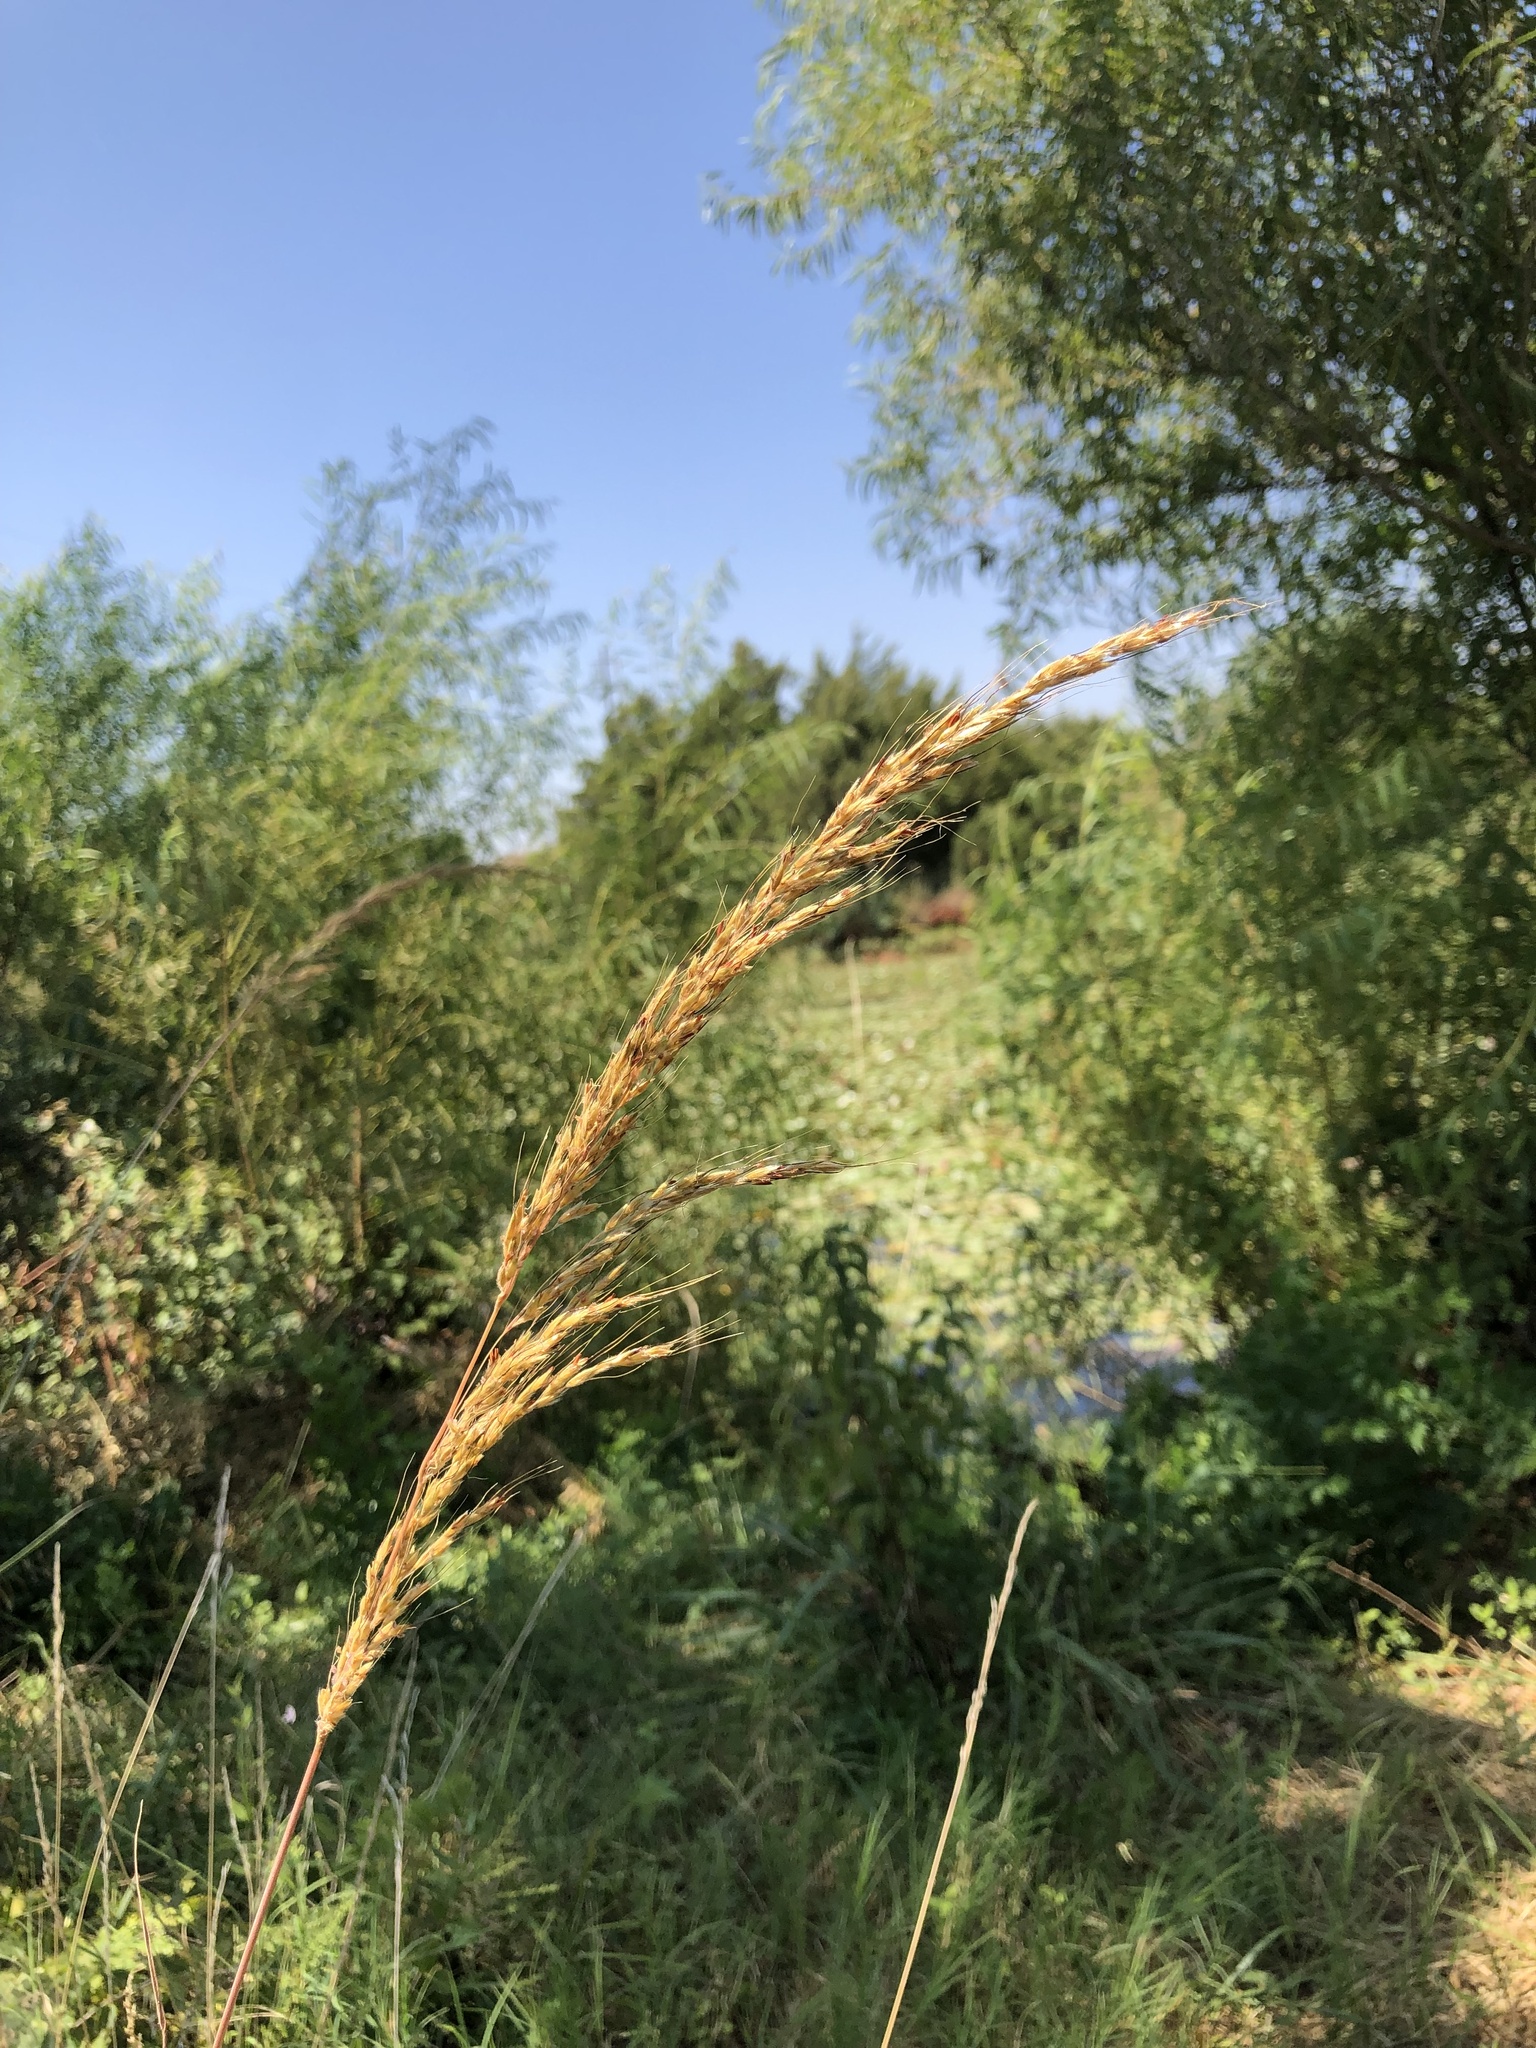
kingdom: Plantae
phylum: Tracheophyta
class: Liliopsida
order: Poales
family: Poaceae
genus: Sorghastrum
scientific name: Sorghastrum nutans
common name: Indian grass
